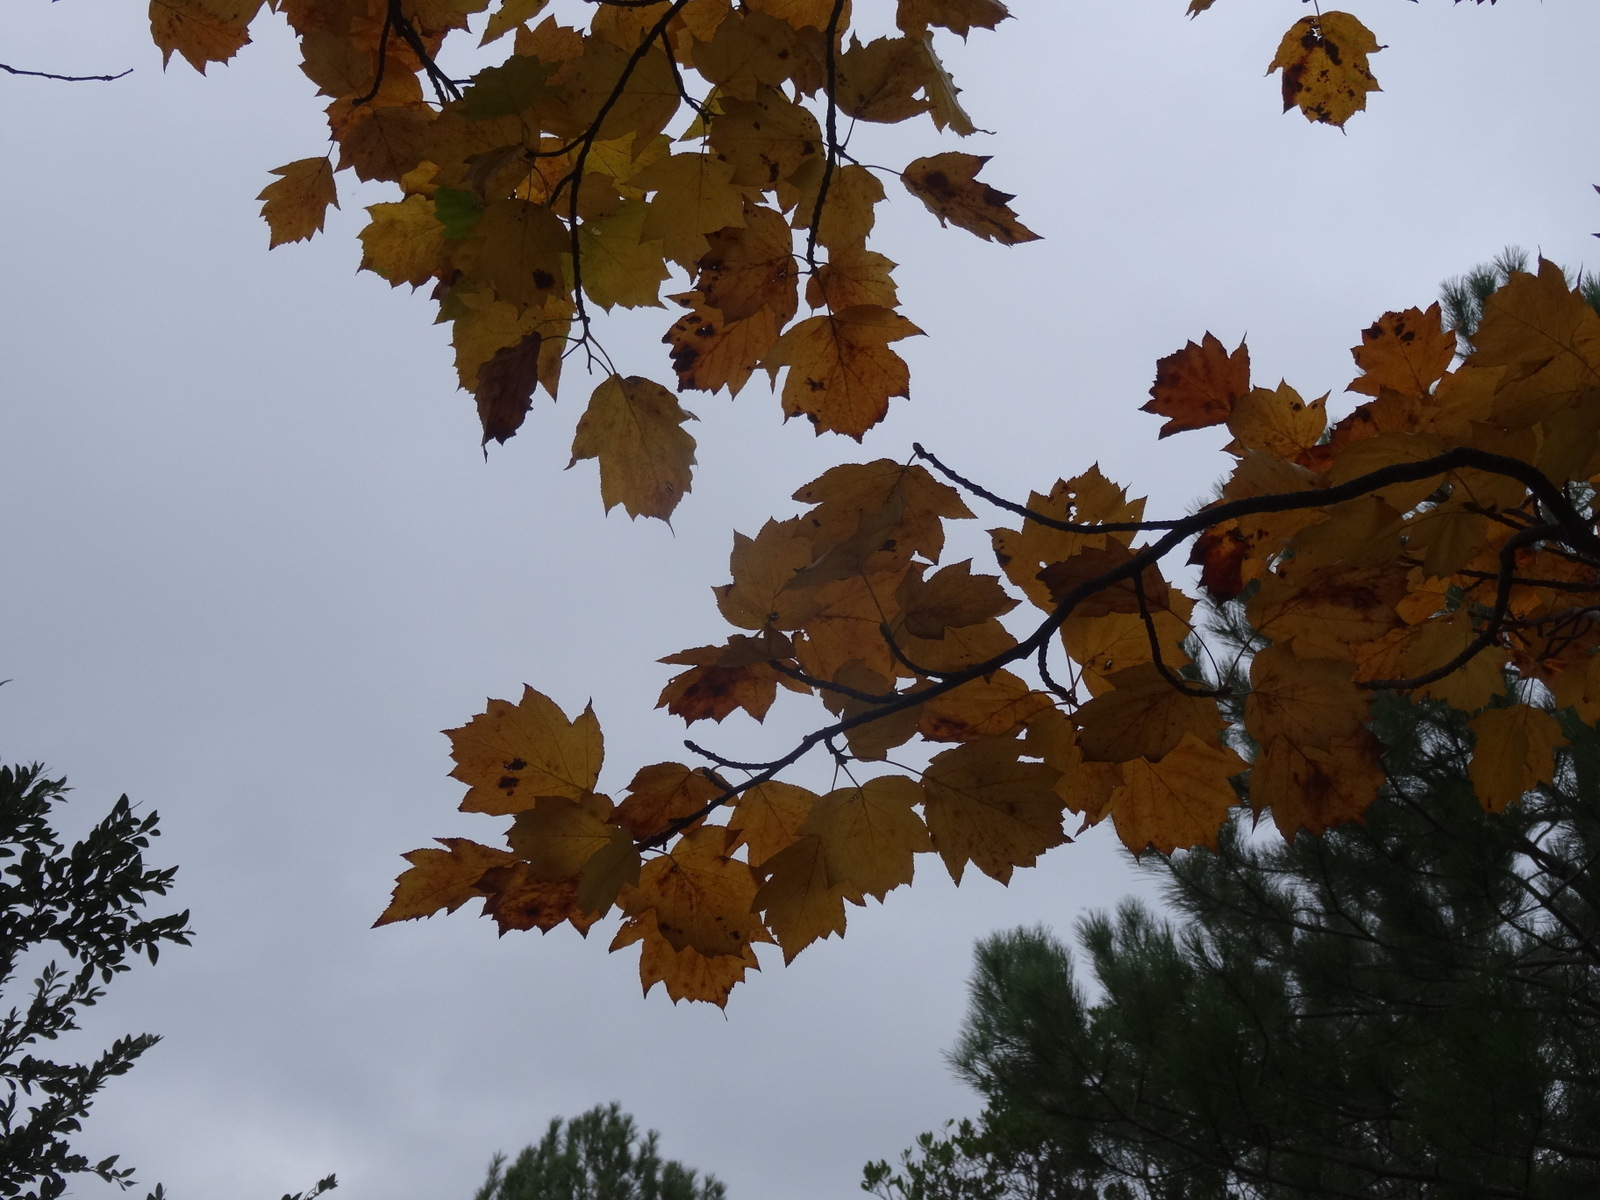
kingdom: Plantae
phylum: Tracheophyta
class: Magnoliopsida
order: Rosales
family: Rosaceae
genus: Torminalis
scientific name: Torminalis glaberrima
